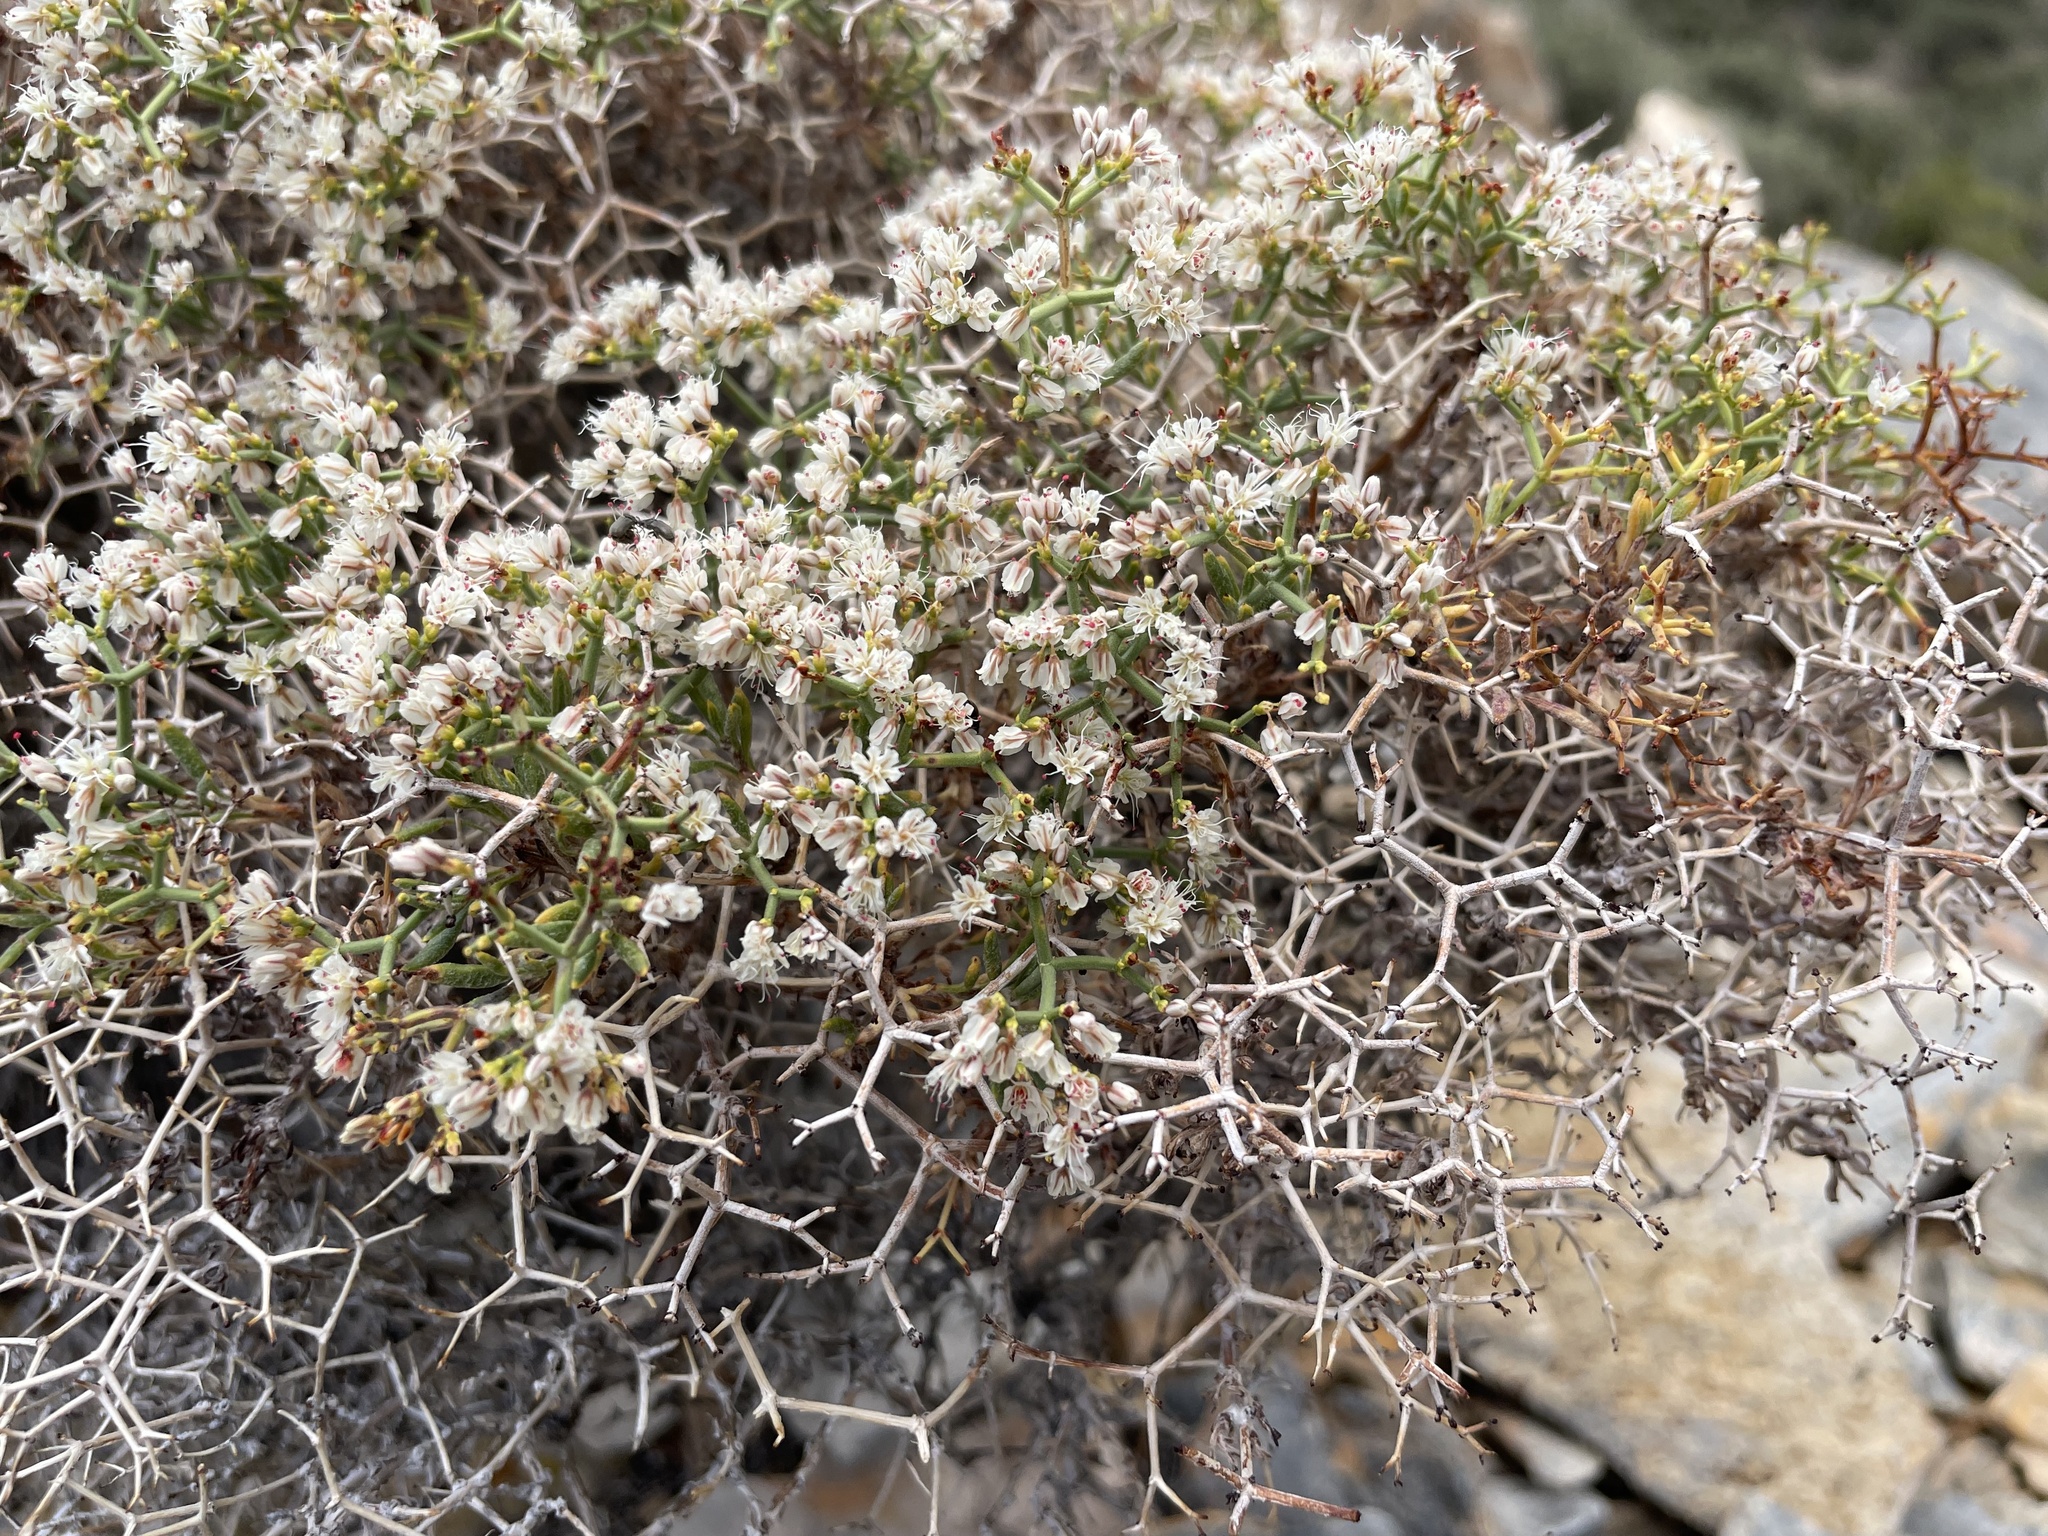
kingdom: Plantae
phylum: Tracheophyta
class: Magnoliopsida
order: Caryophyllales
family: Polygonaceae
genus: Eriogonum
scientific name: Eriogonum heermannii
